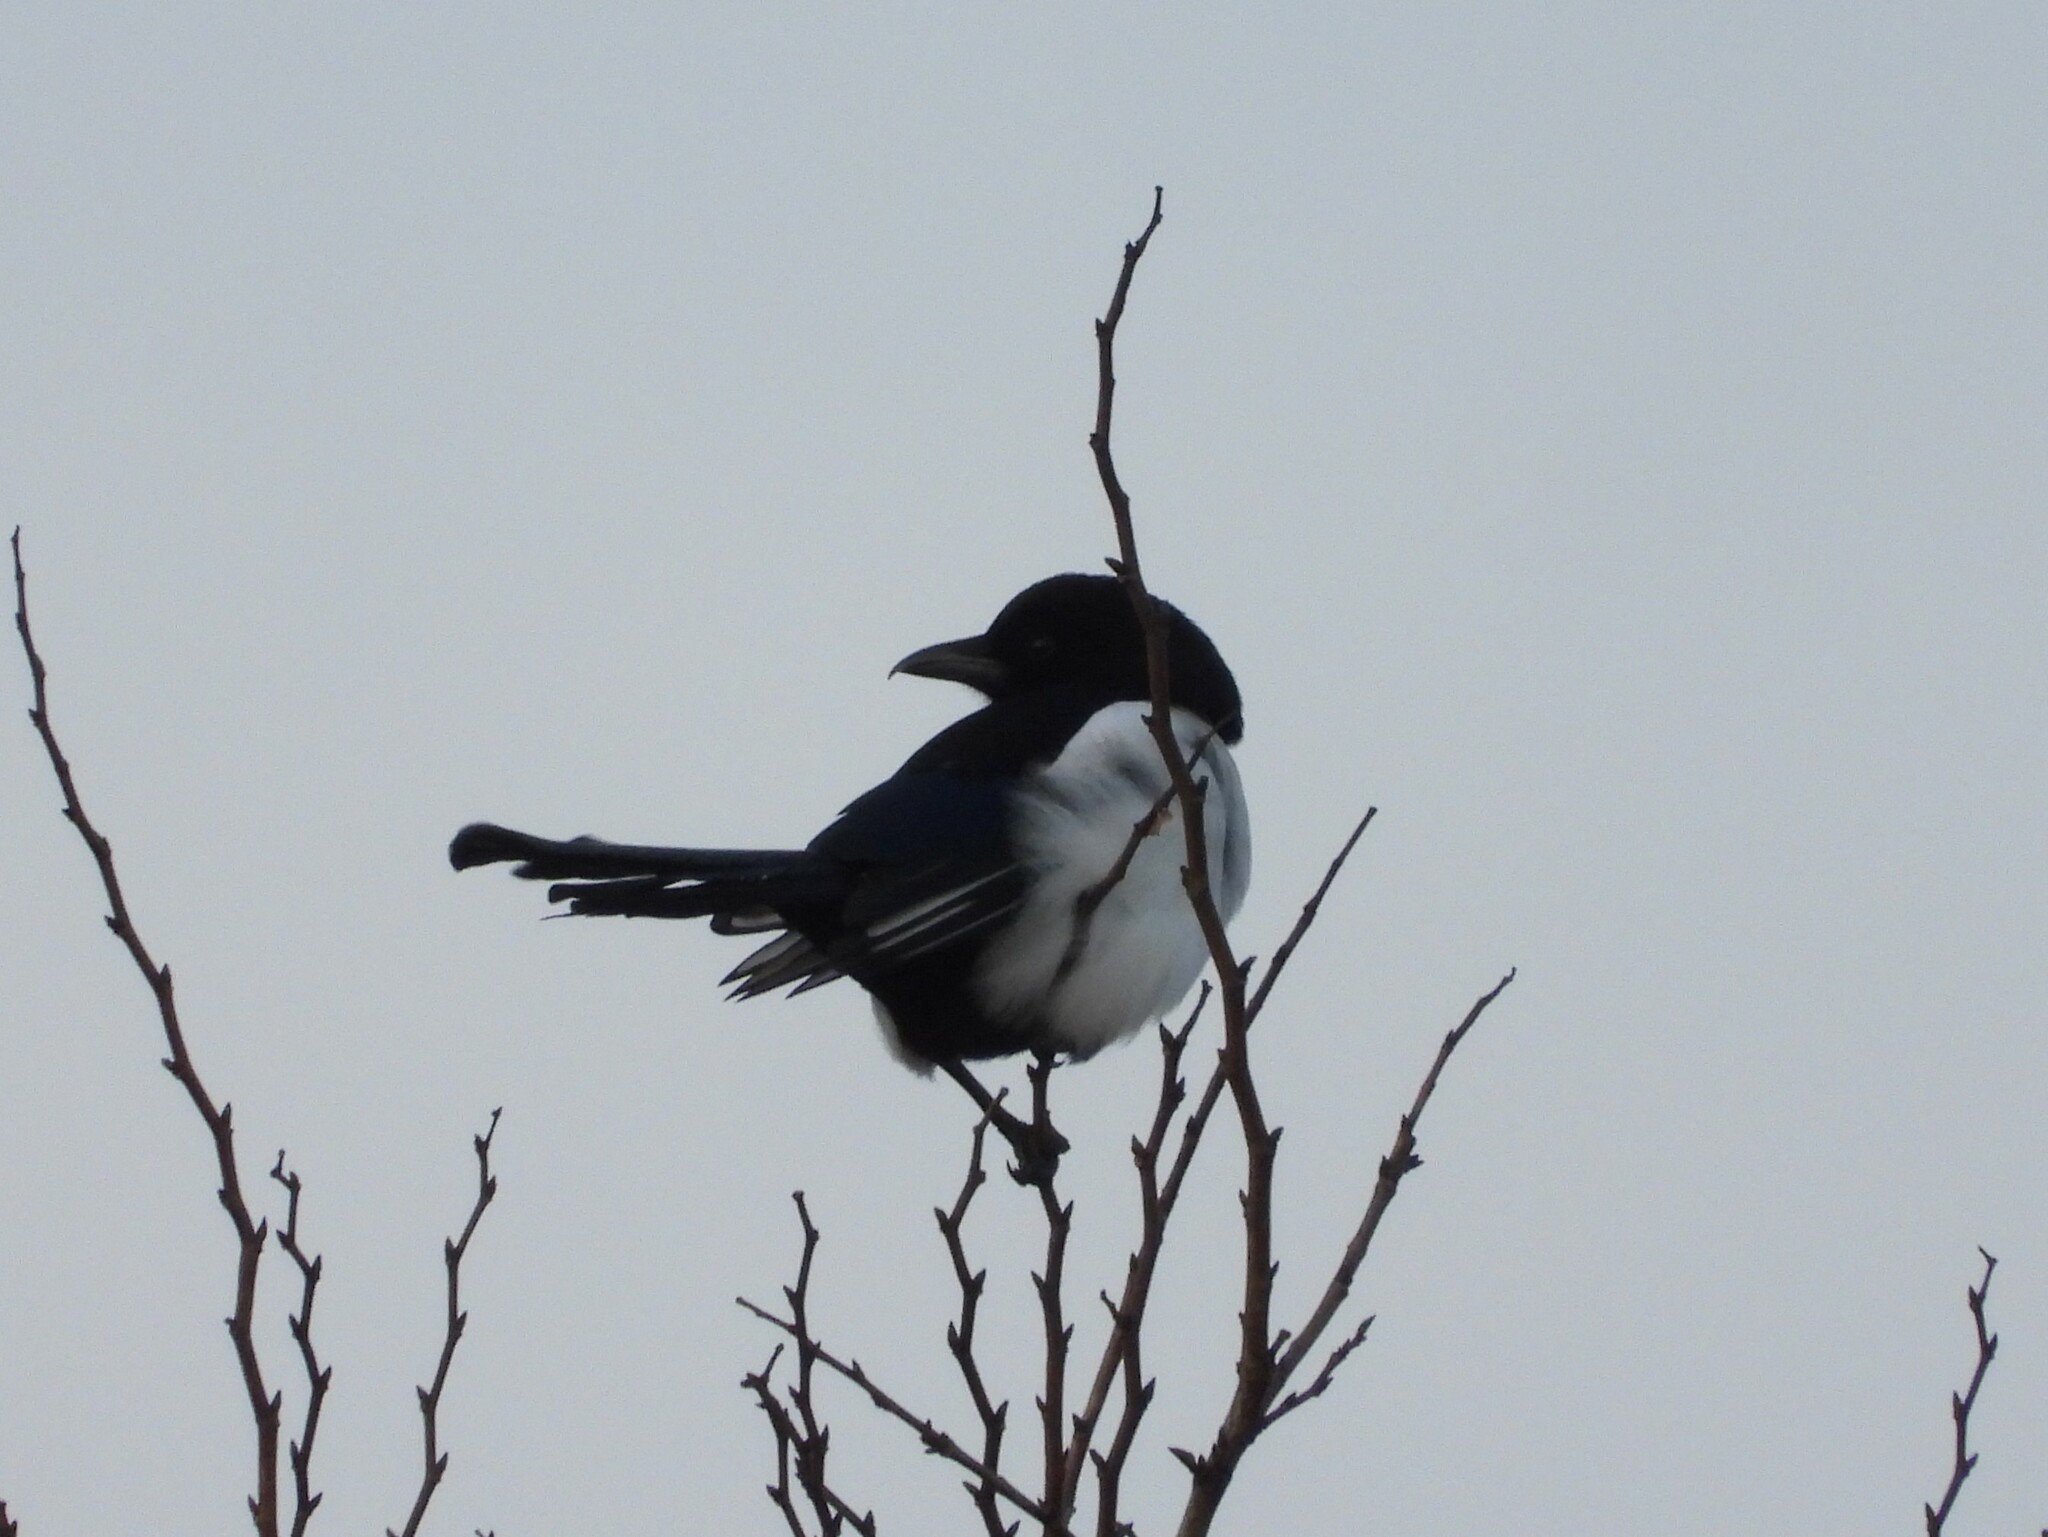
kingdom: Animalia
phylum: Chordata
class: Aves
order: Passeriformes
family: Corvidae
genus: Pica
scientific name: Pica pica
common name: Eurasian magpie
